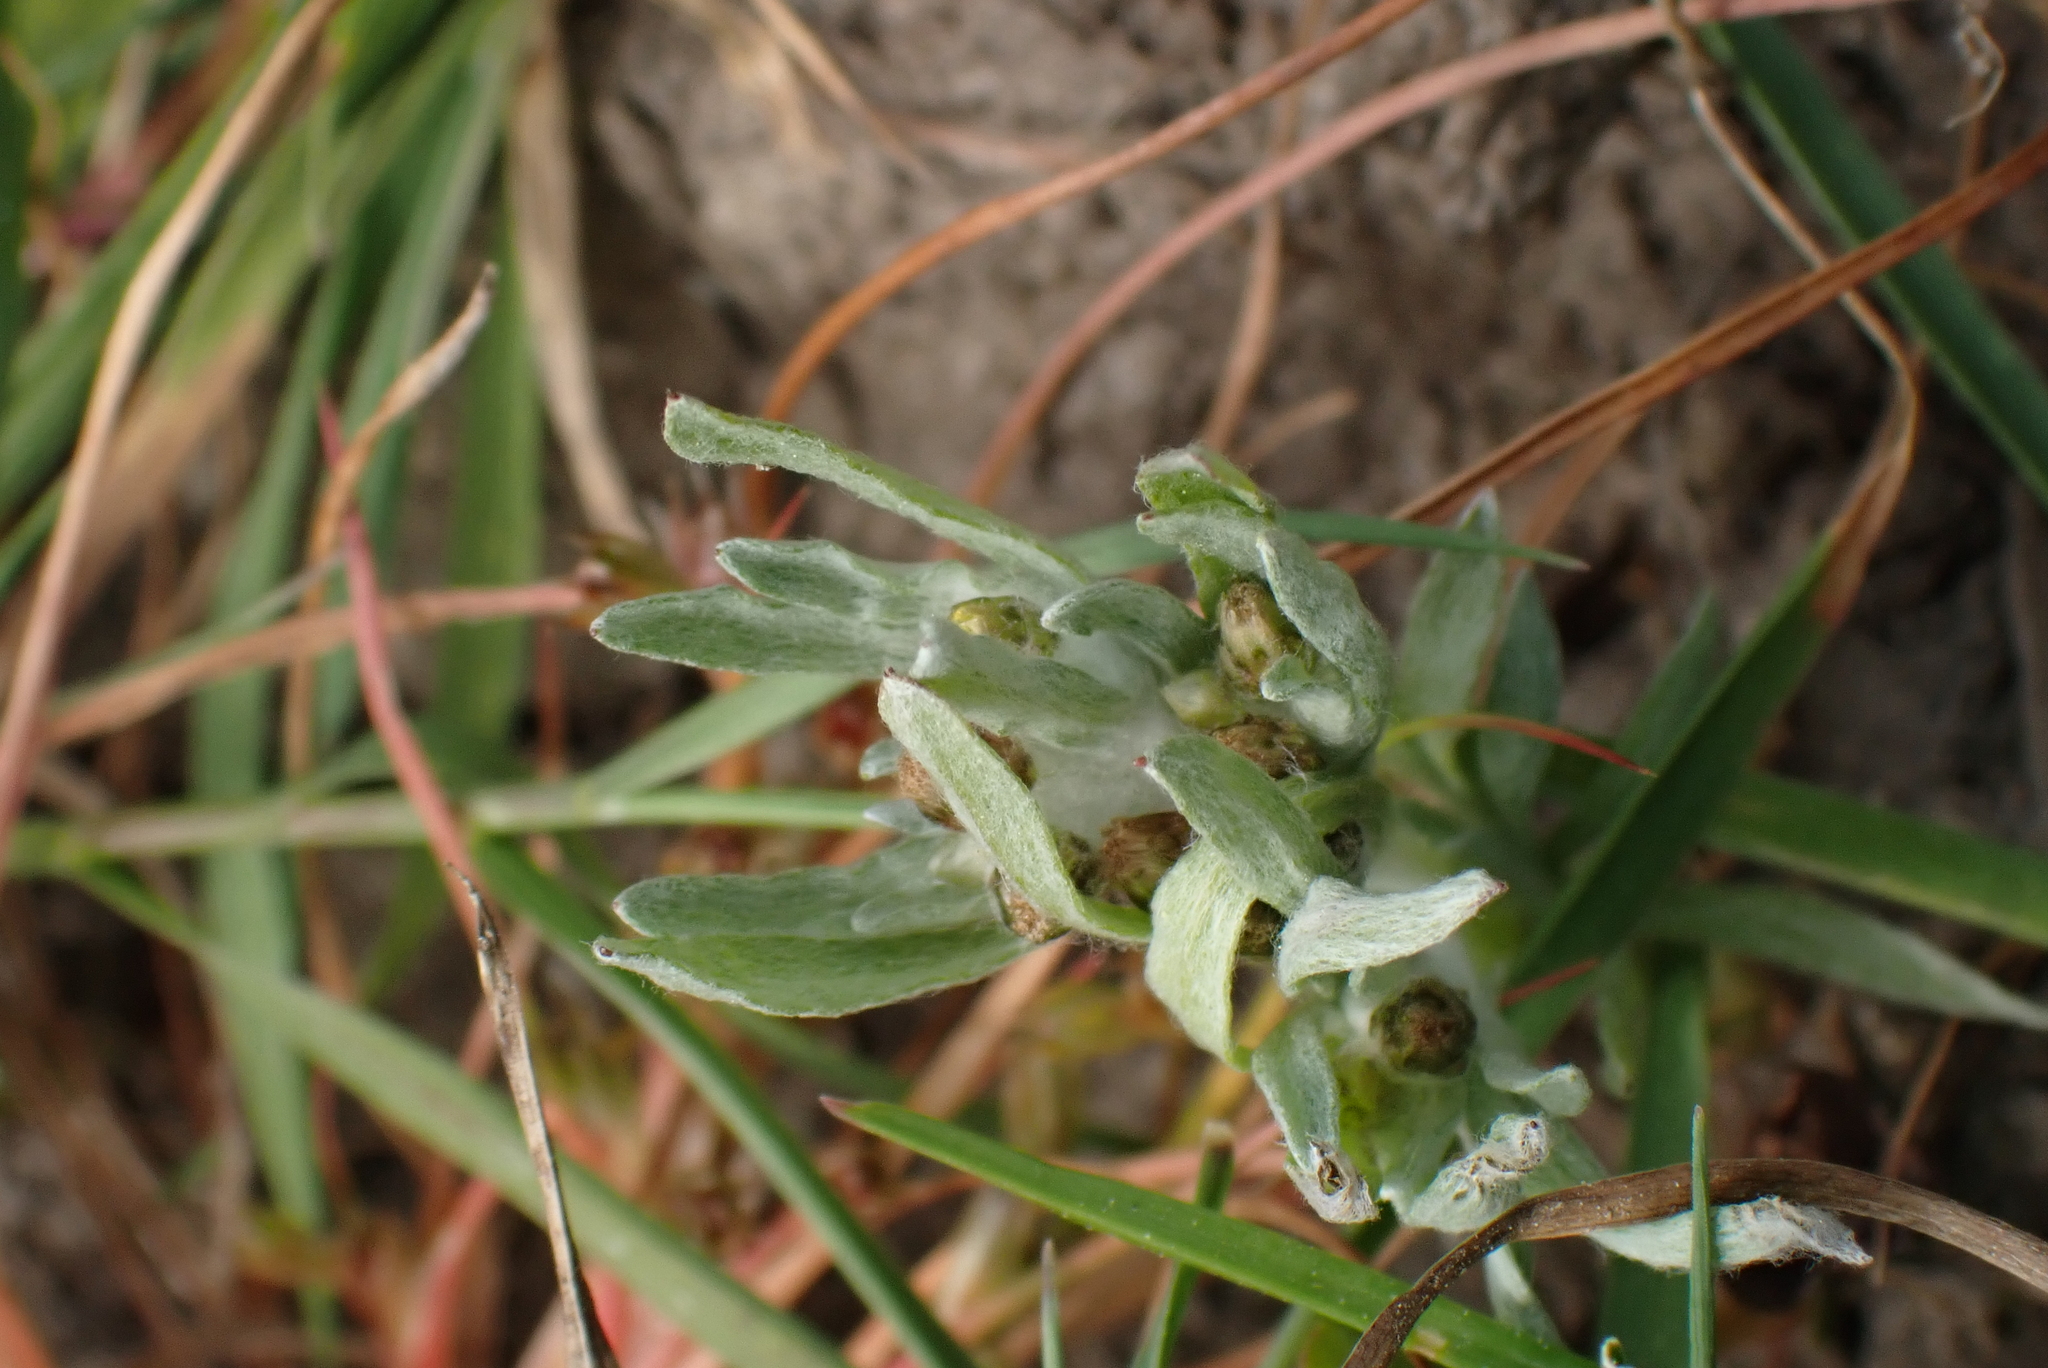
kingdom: Plantae
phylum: Tracheophyta
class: Magnoliopsida
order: Asterales
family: Asteraceae
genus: Gnaphalium
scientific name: Gnaphalium uliginosum
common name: Marsh cudweed
